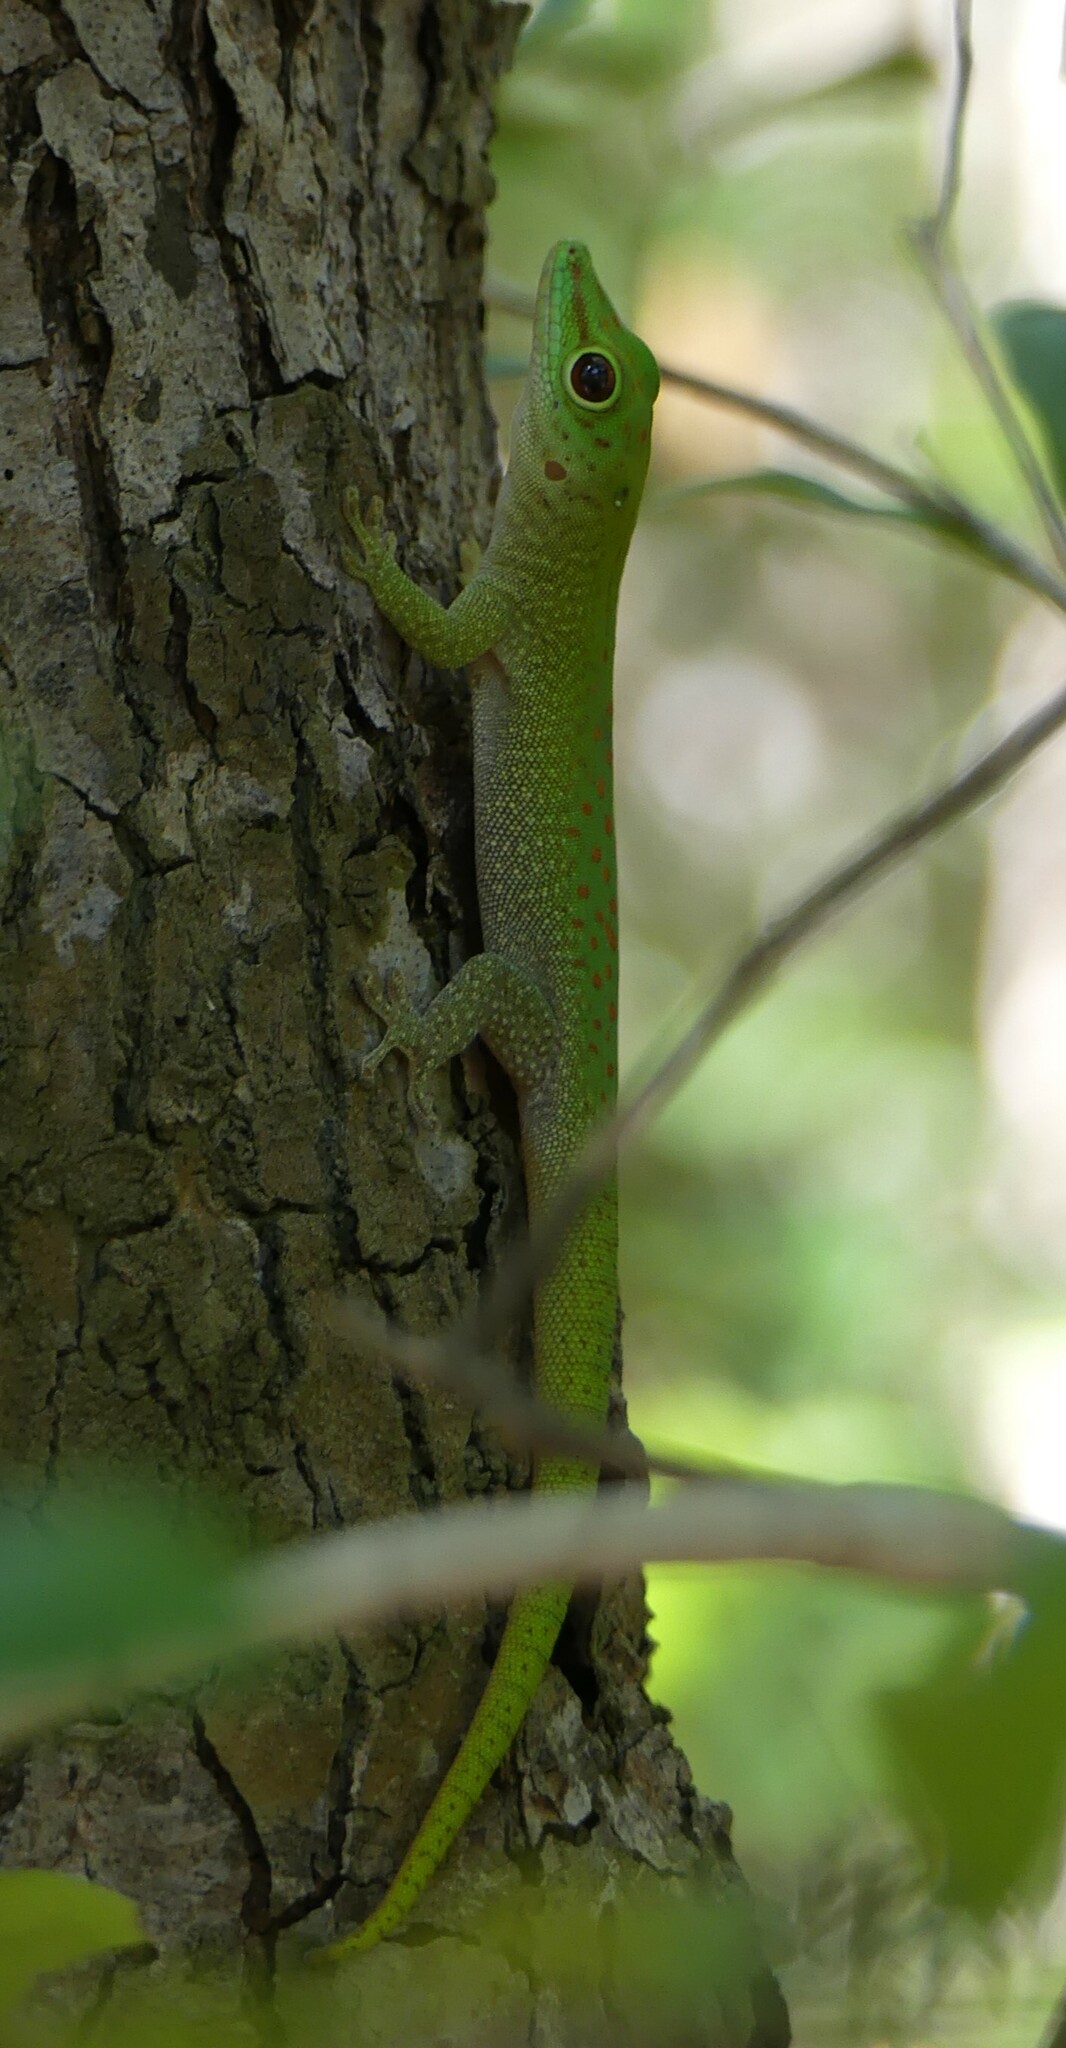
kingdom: Animalia
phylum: Chordata
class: Squamata
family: Gekkonidae
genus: Phelsuma
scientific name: Phelsuma kochi
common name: Madagascar day gecko
